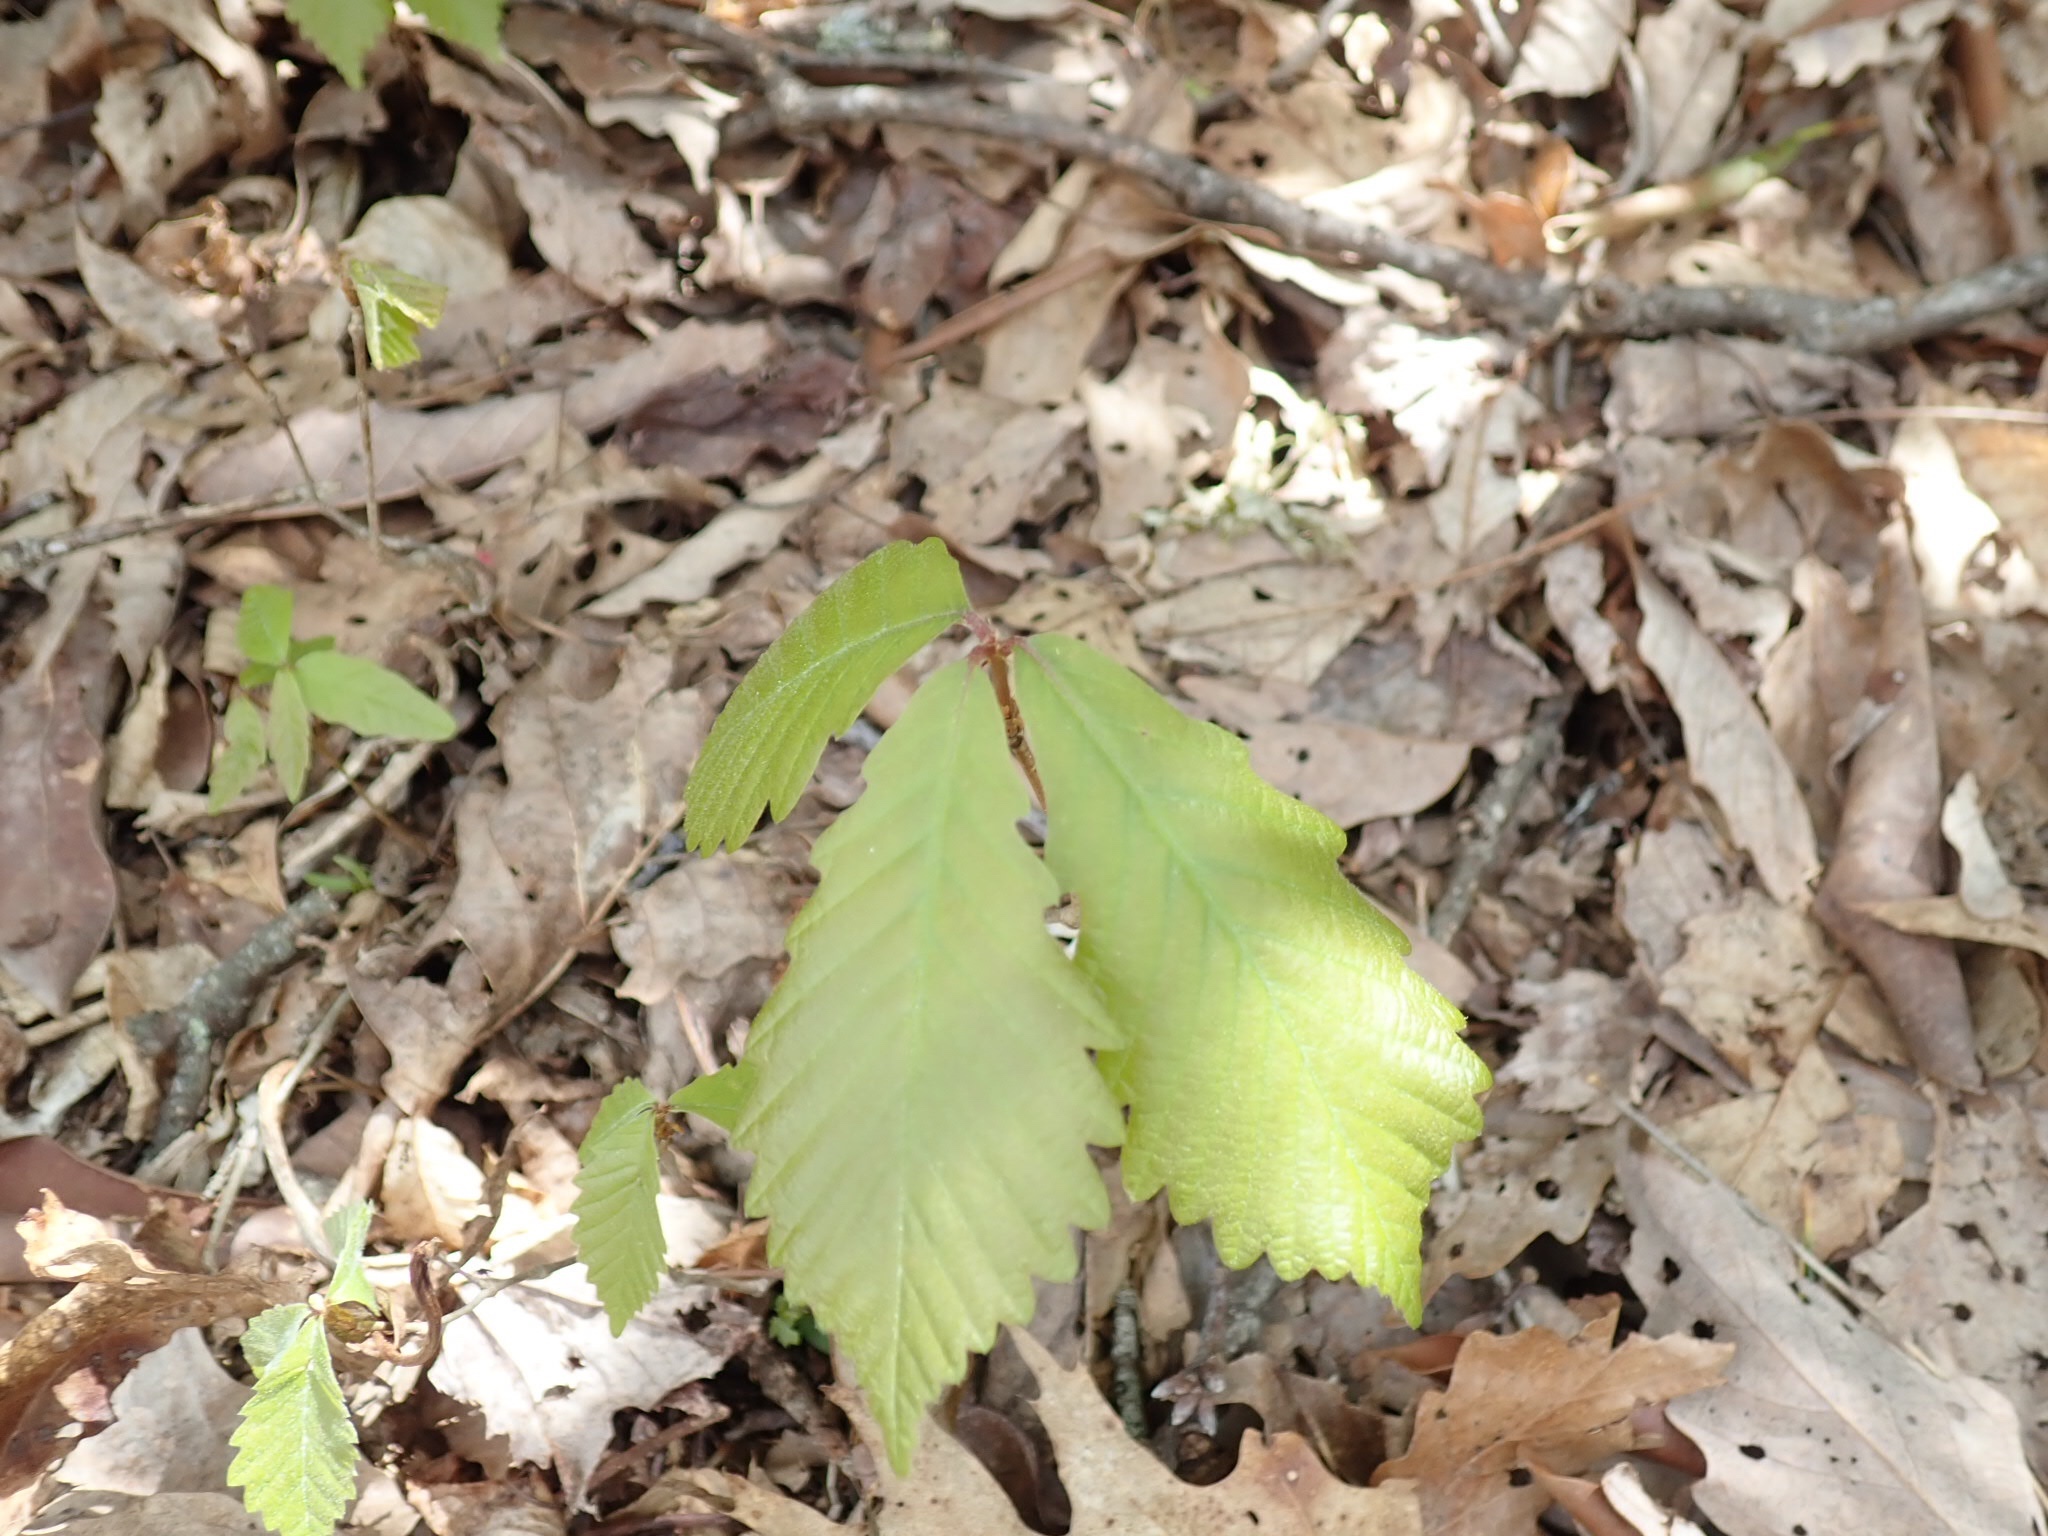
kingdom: Plantae
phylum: Tracheophyta
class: Magnoliopsida
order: Fagales
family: Fagaceae
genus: Quercus
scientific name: Quercus montana
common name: Chestnut oak
